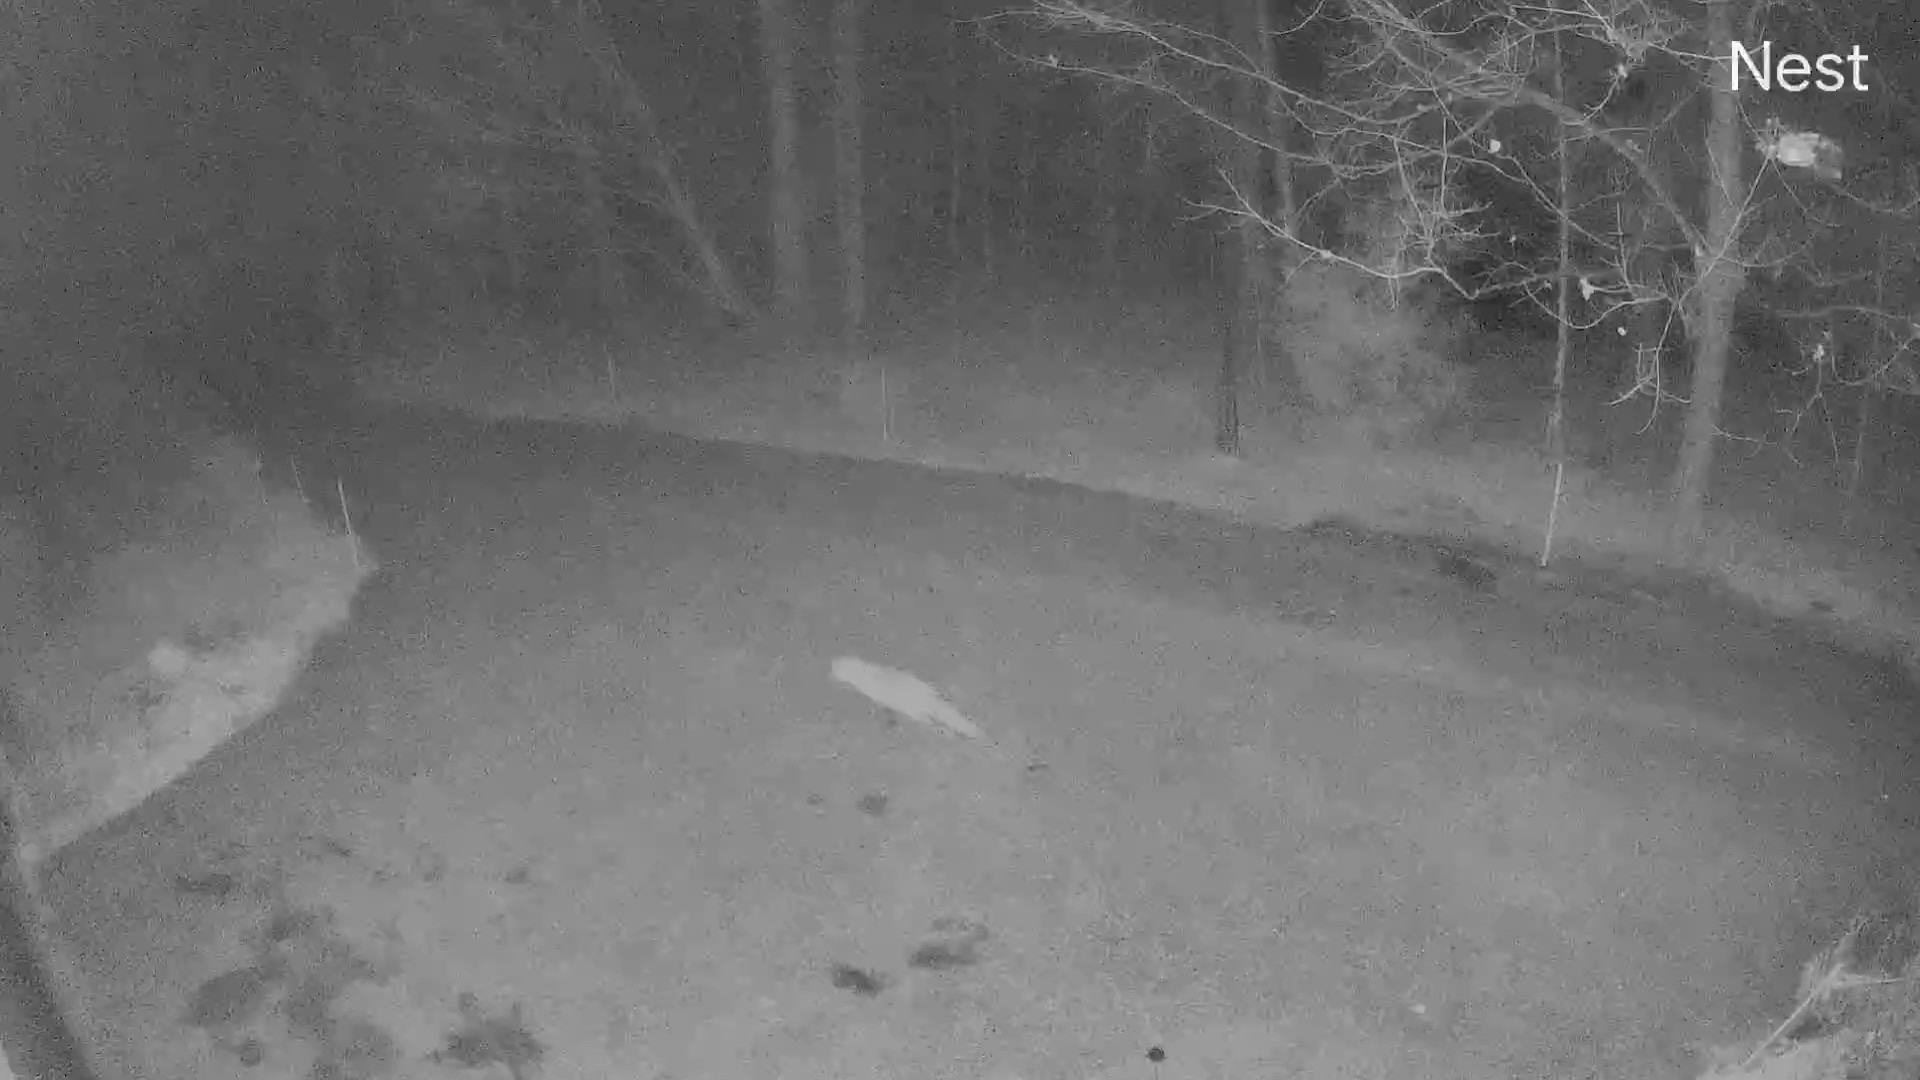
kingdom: Animalia
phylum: Chordata
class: Mammalia
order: Carnivora
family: Canidae
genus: Vulpes
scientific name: Vulpes vulpes
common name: Red fox
